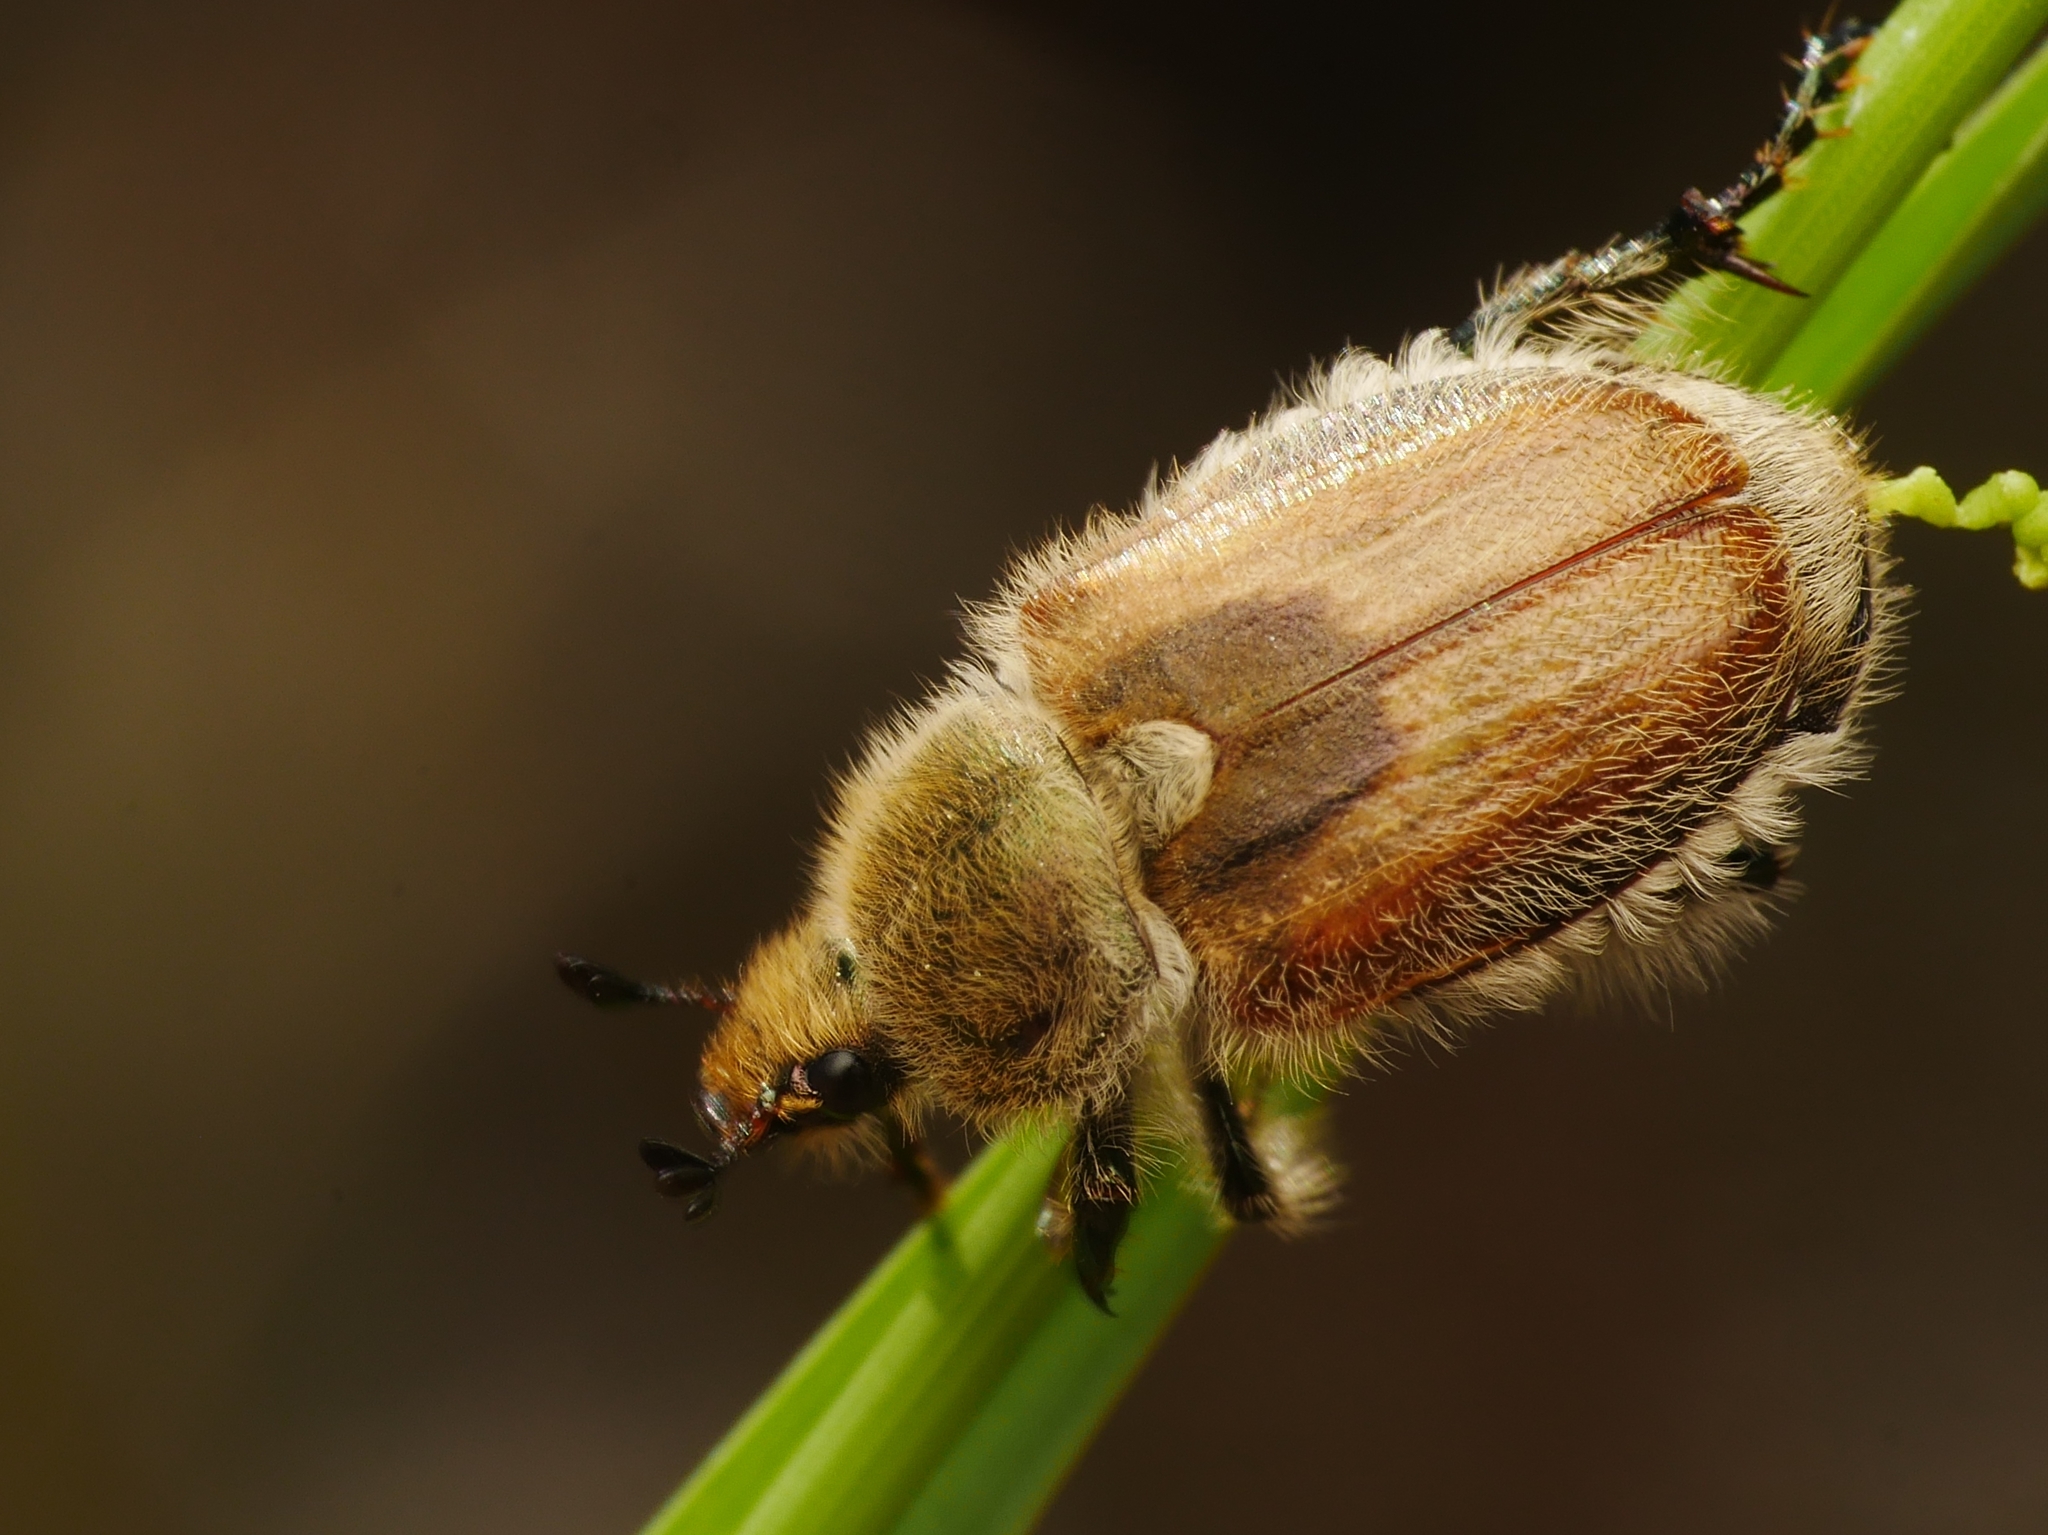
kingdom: Animalia
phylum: Arthropoda
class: Insecta
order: Coleoptera
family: Scarabaeidae
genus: Chaetopteroplia
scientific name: Chaetopteroplia segetum
